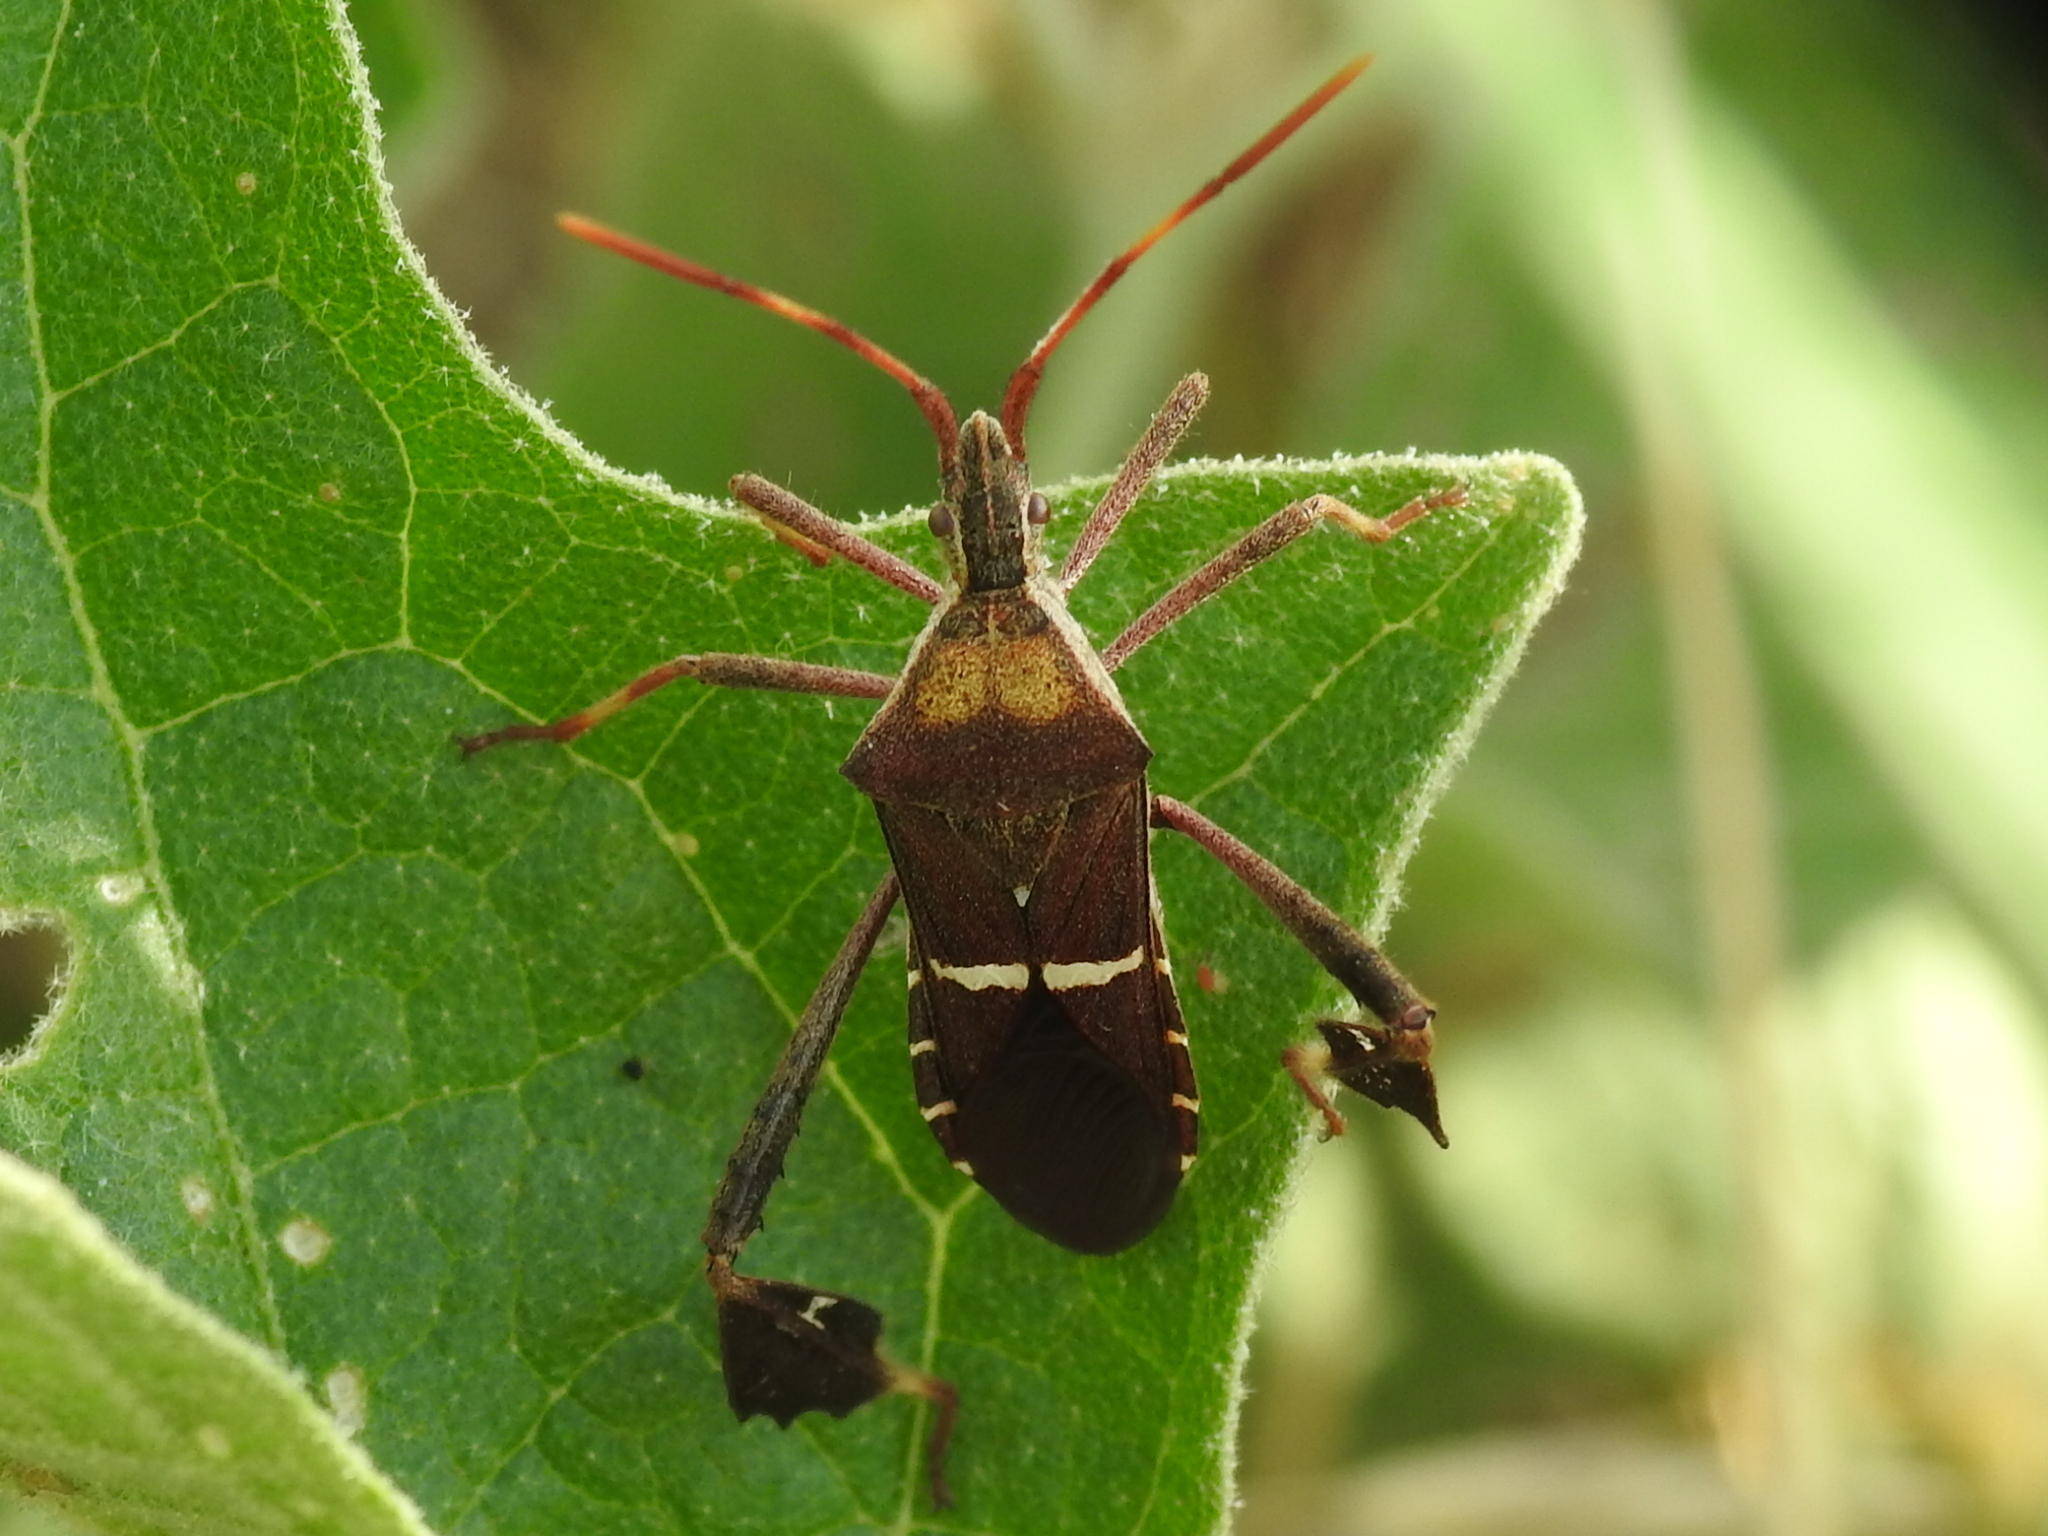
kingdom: Animalia
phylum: Arthropoda
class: Insecta
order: Hemiptera
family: Coreidae
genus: Leptoglossus
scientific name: Leptoglossus phyllopus
